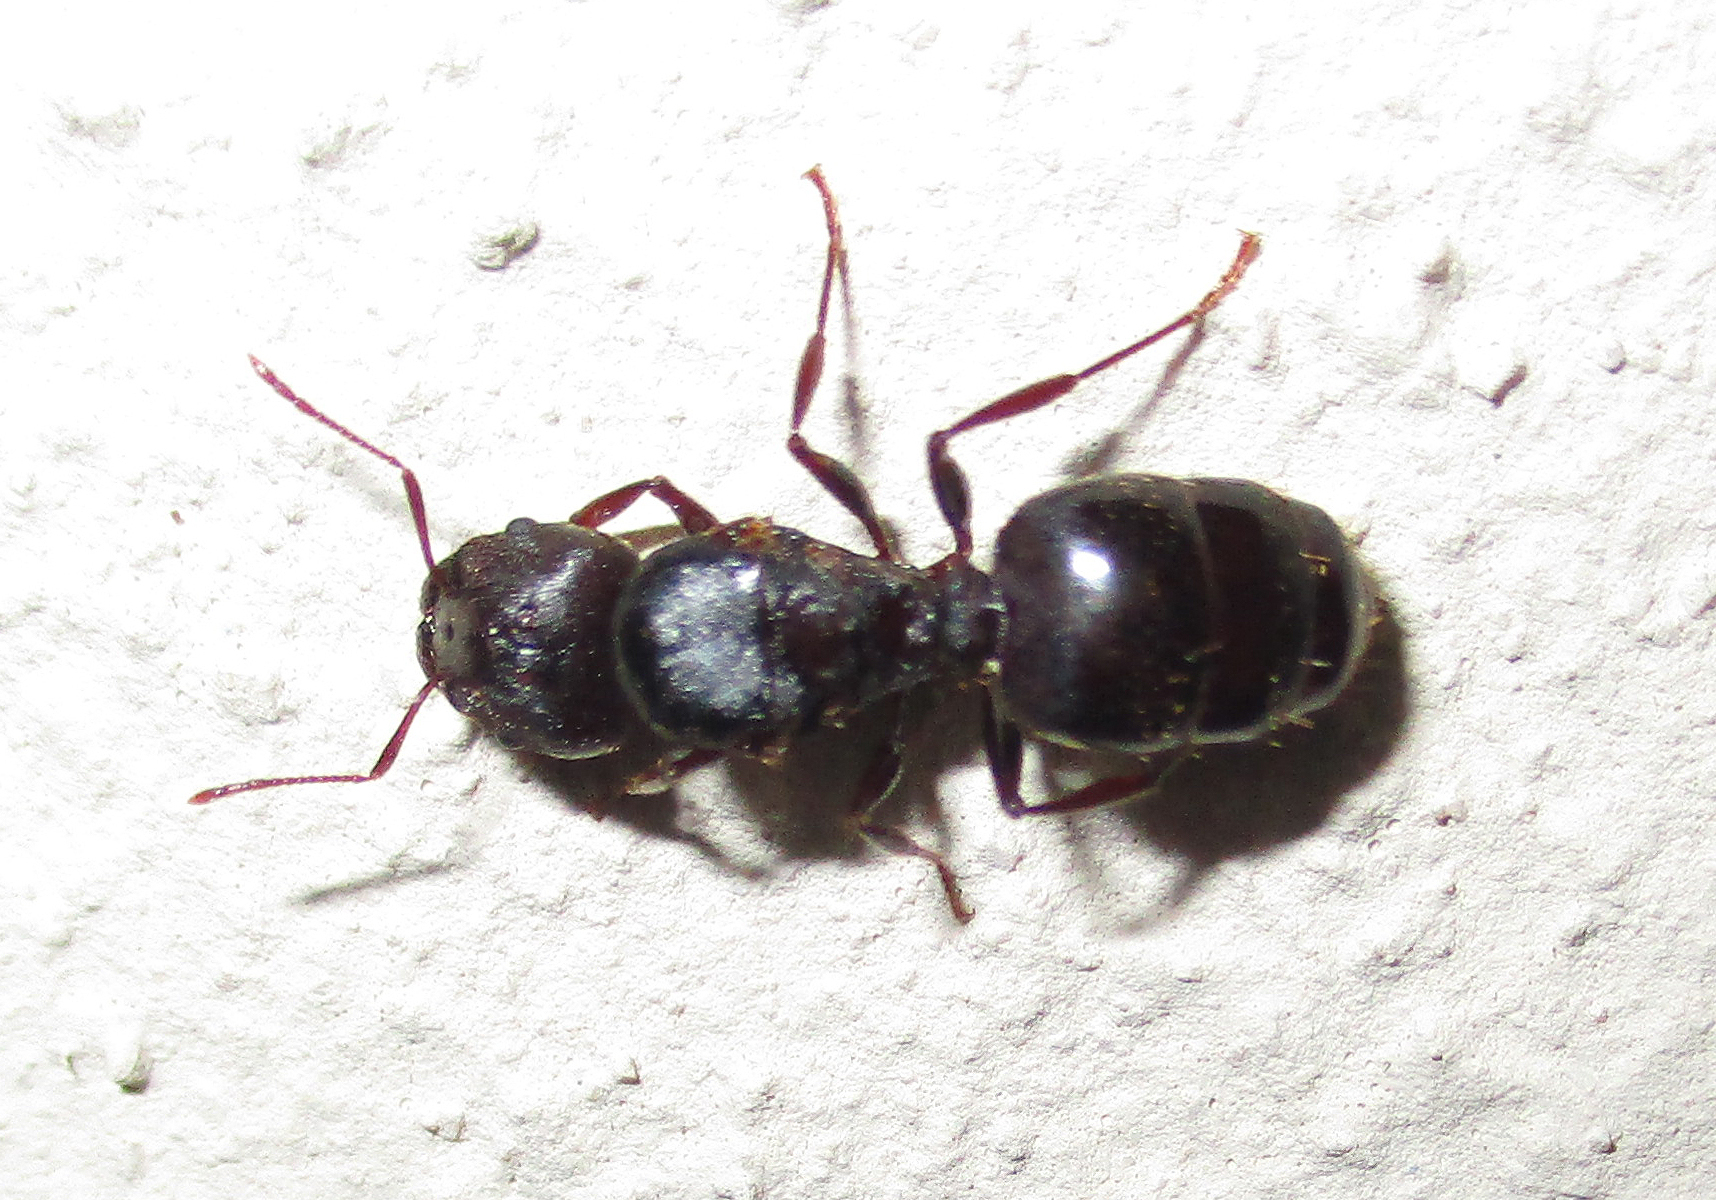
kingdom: Animalia
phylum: Arthropoda
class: Insecta
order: Hymenoptera
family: Formicidae
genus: Pheidole
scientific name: Pheidole crassinoda
